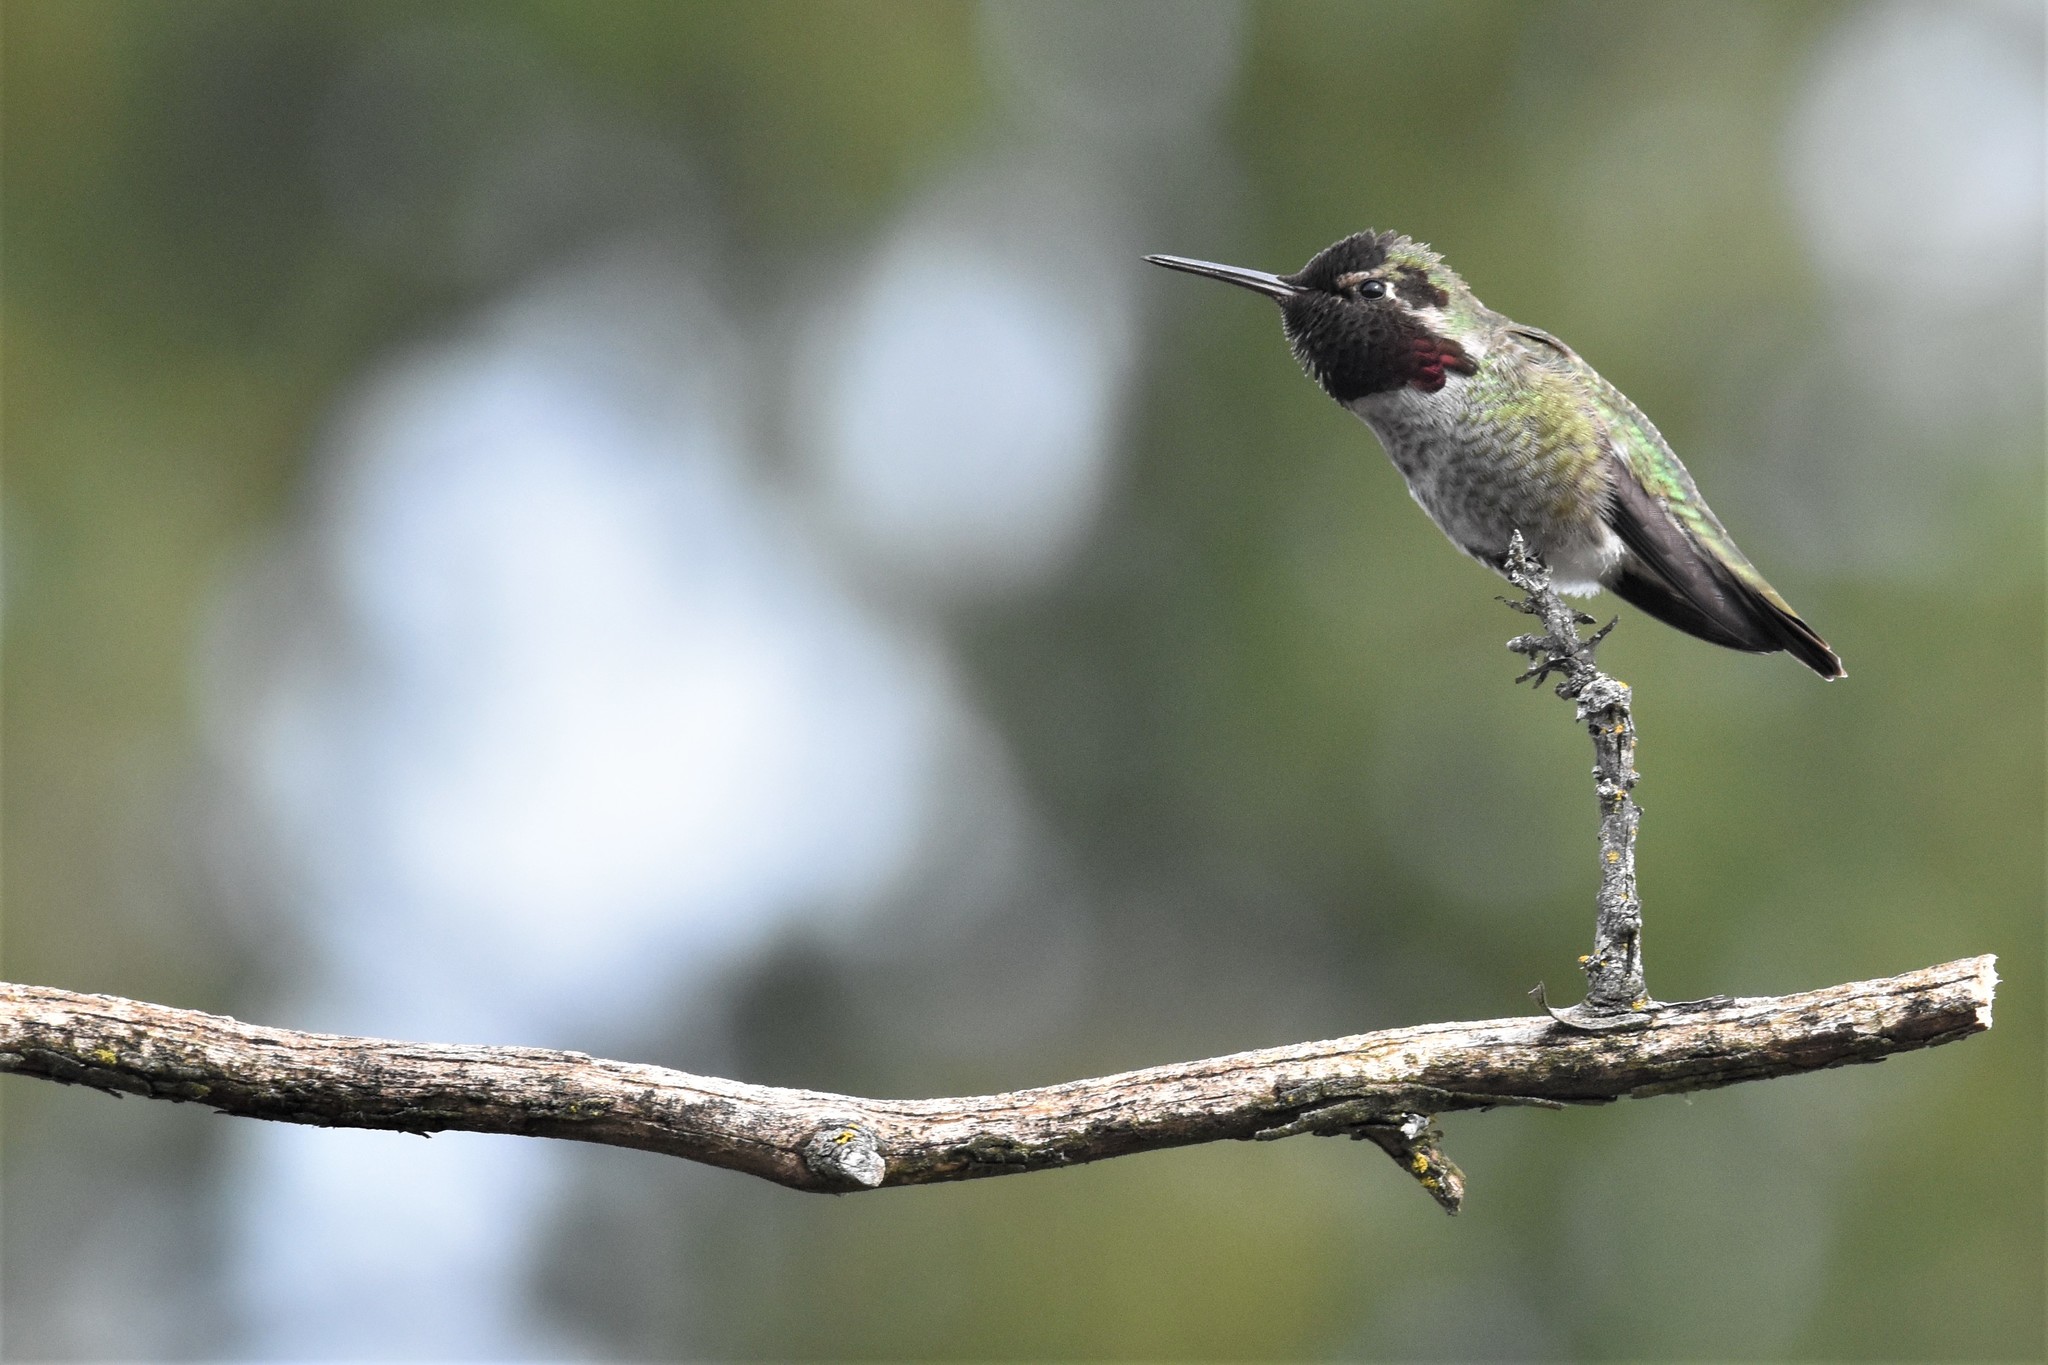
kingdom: Animalia
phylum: Chordata
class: Aves
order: Apodiformes
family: Trochilidae
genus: Calypte
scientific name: Calypte anna
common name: Anna's hummingbird
